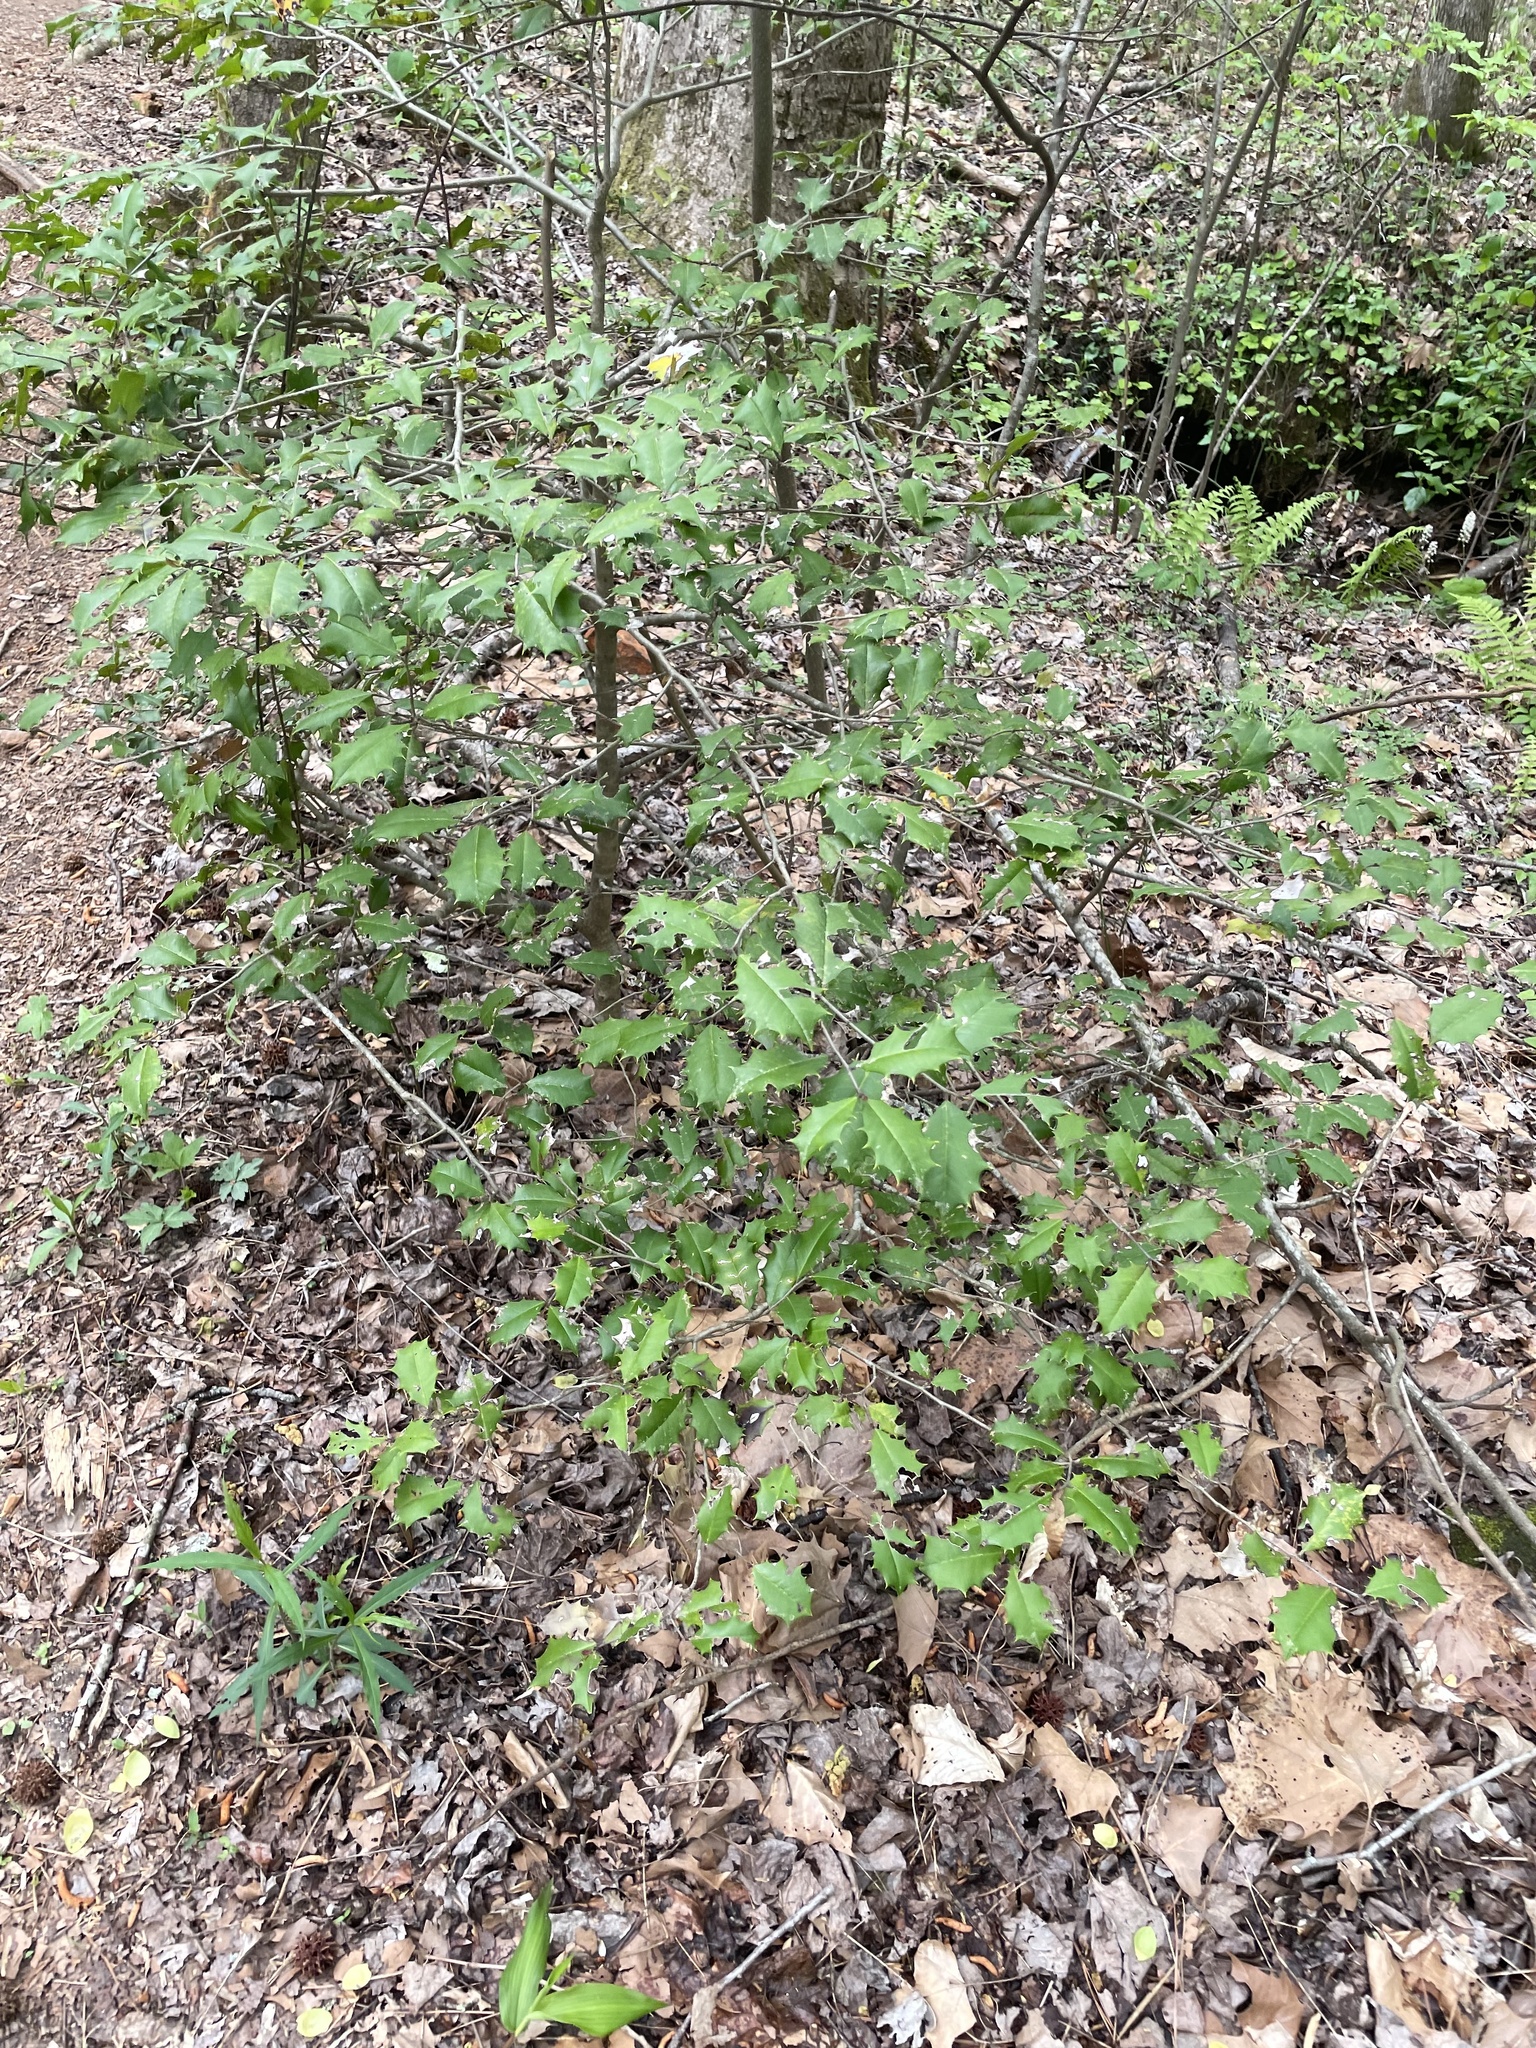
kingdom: Plantae
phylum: Tracheophyta
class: Magnoliopsida
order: Aquifoliales
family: Aquifoliaceae
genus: Ilex
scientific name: Ilex opaca
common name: American holly
